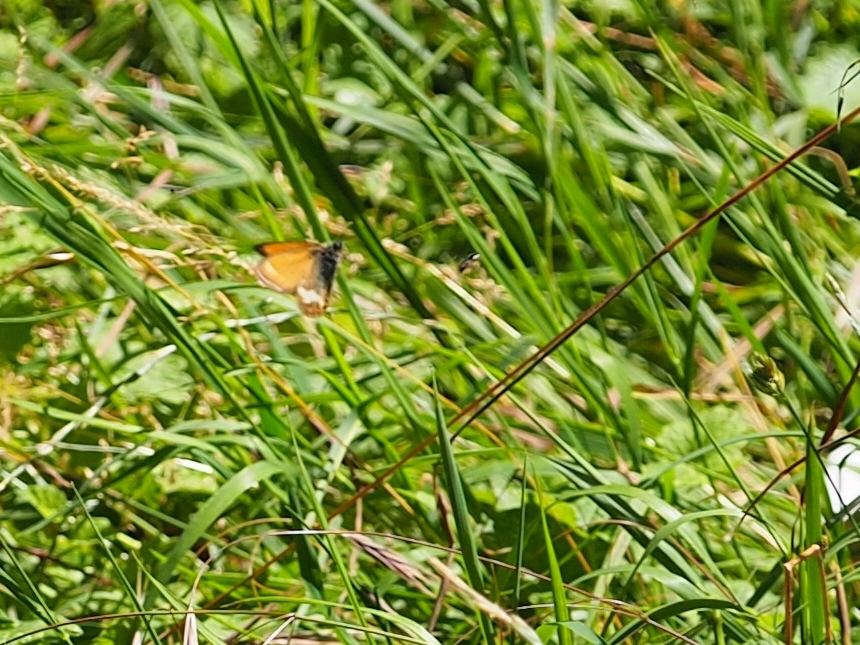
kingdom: Animalia
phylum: Arthropoda
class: Insecta
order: Lepidoptera
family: Nymphalidae
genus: Coenonympha
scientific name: Coenonympha arcania
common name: Pearly heath
